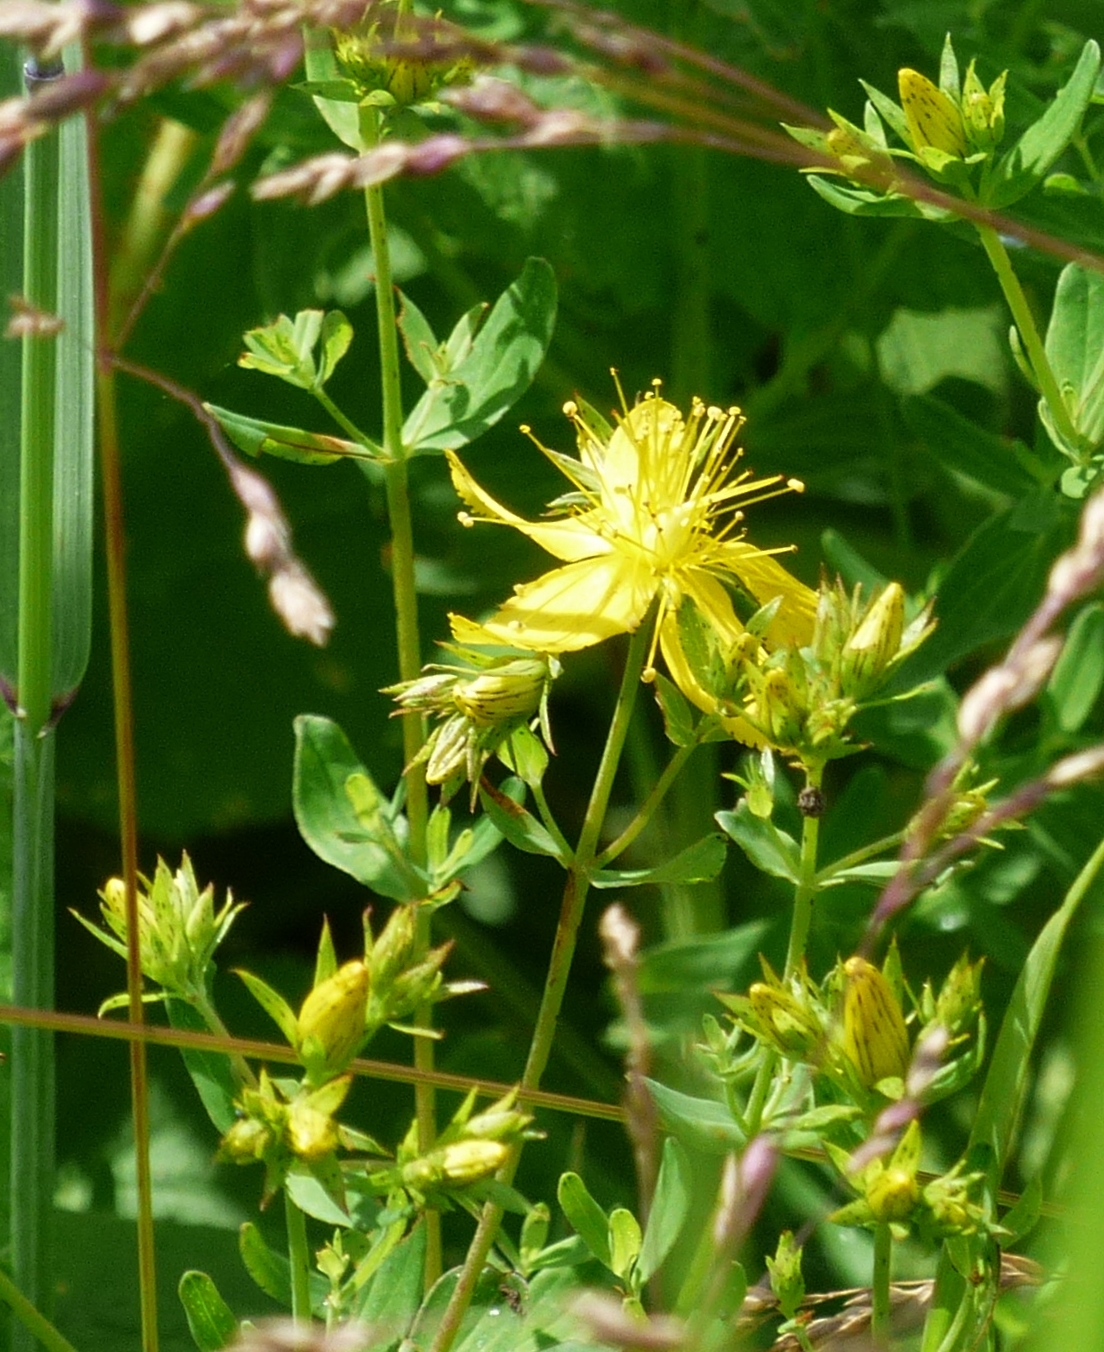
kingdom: Plantae
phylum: Tracheophyta
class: Magnoliopsida
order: Malpighiales
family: Hypericaceae
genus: Hypericum
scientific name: Hypericum perforatum
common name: Common st. johnswort
